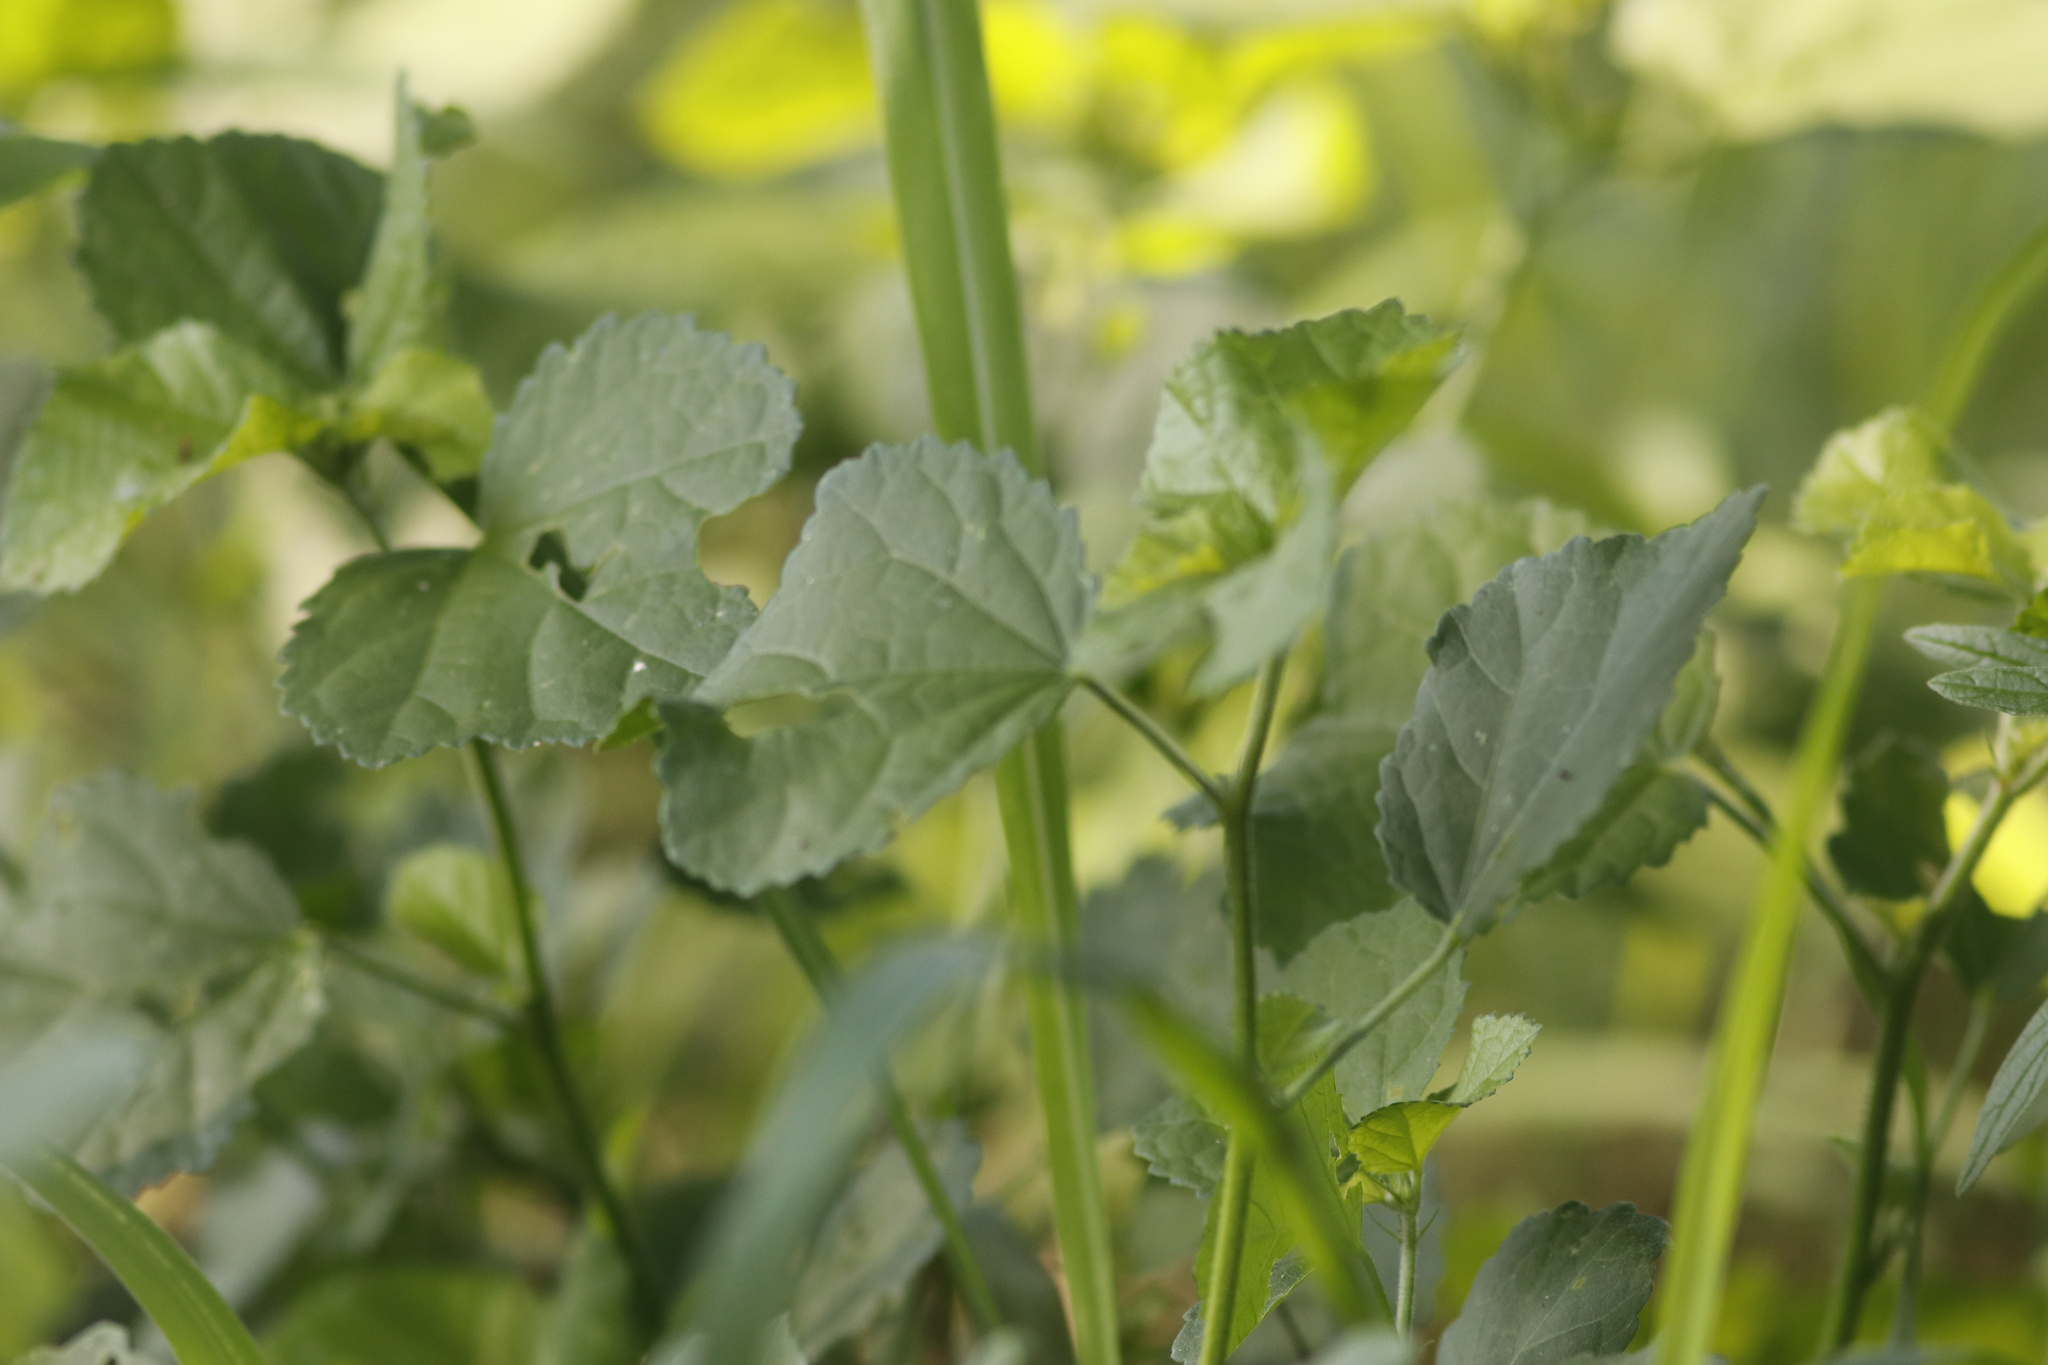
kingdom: Plantae
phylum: Tracheophyta
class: Magnoliopsida
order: Malvales
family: Malvaceae
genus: Hibiscus
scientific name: Hibiscus calyphyllus
